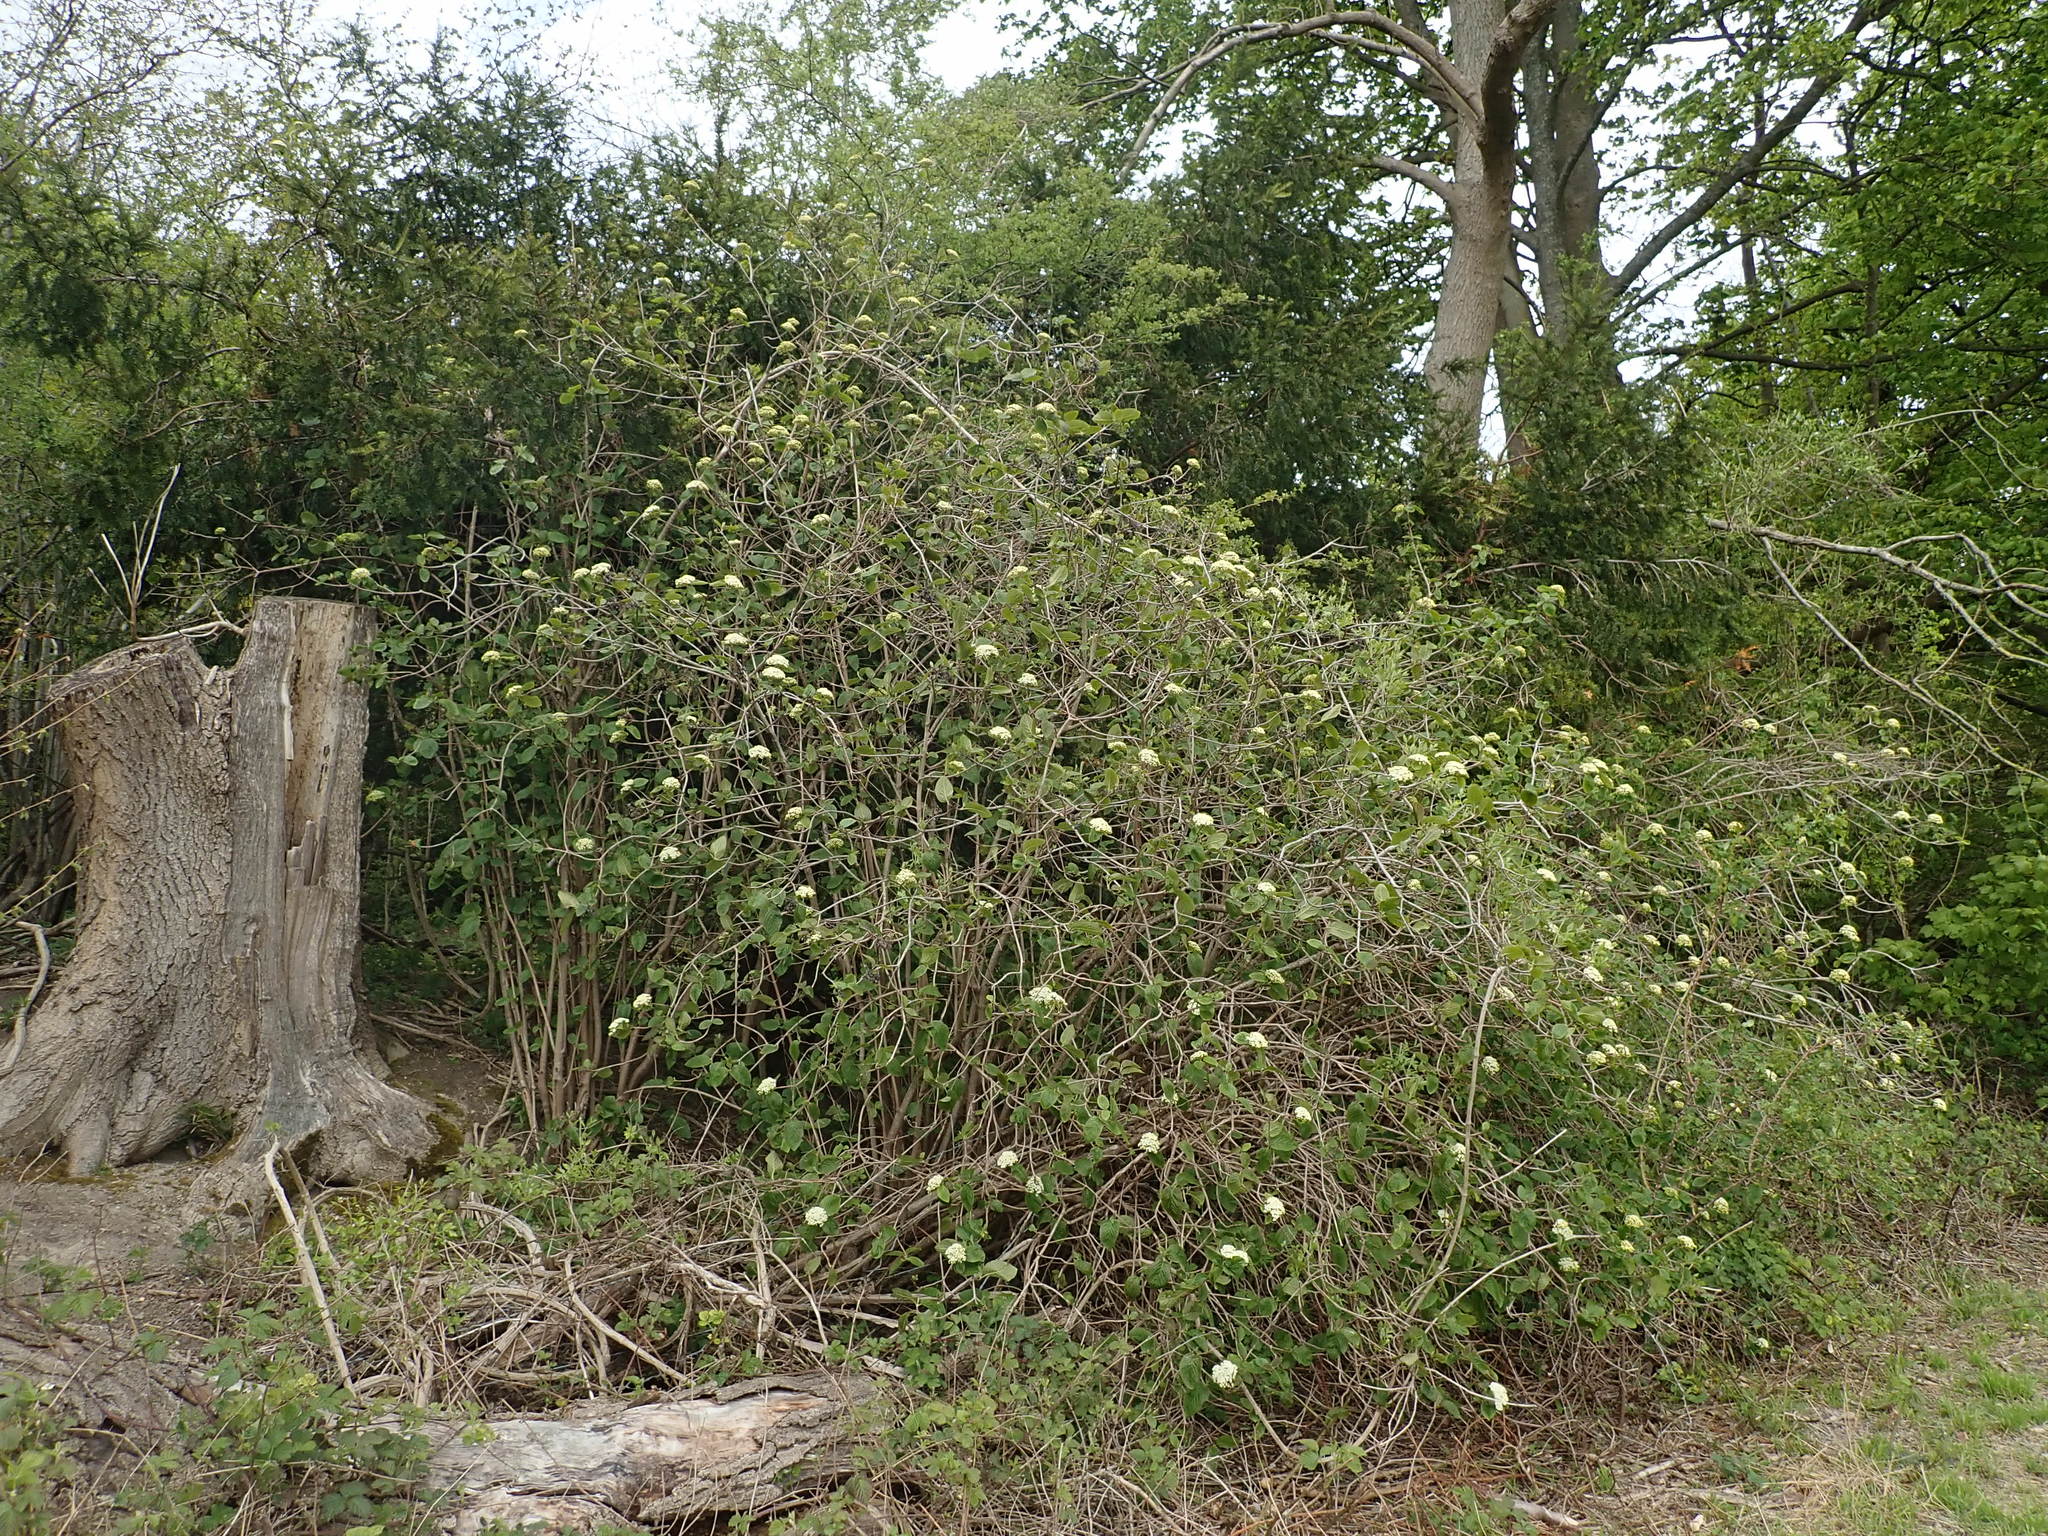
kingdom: Plantae
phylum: Tracheophyta
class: Magnoliopsida
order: Dipsacales
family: Viburnaceae
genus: Viburnum
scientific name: Viburnum lantana
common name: Wayfaring tree
